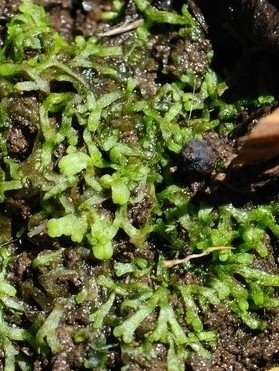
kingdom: Plantae
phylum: Marchantiophyta
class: Marchantiopsida
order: Marchantiales
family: Ricciaceae
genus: Riccia
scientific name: Riccia fluitans
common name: Floating crystalwort
